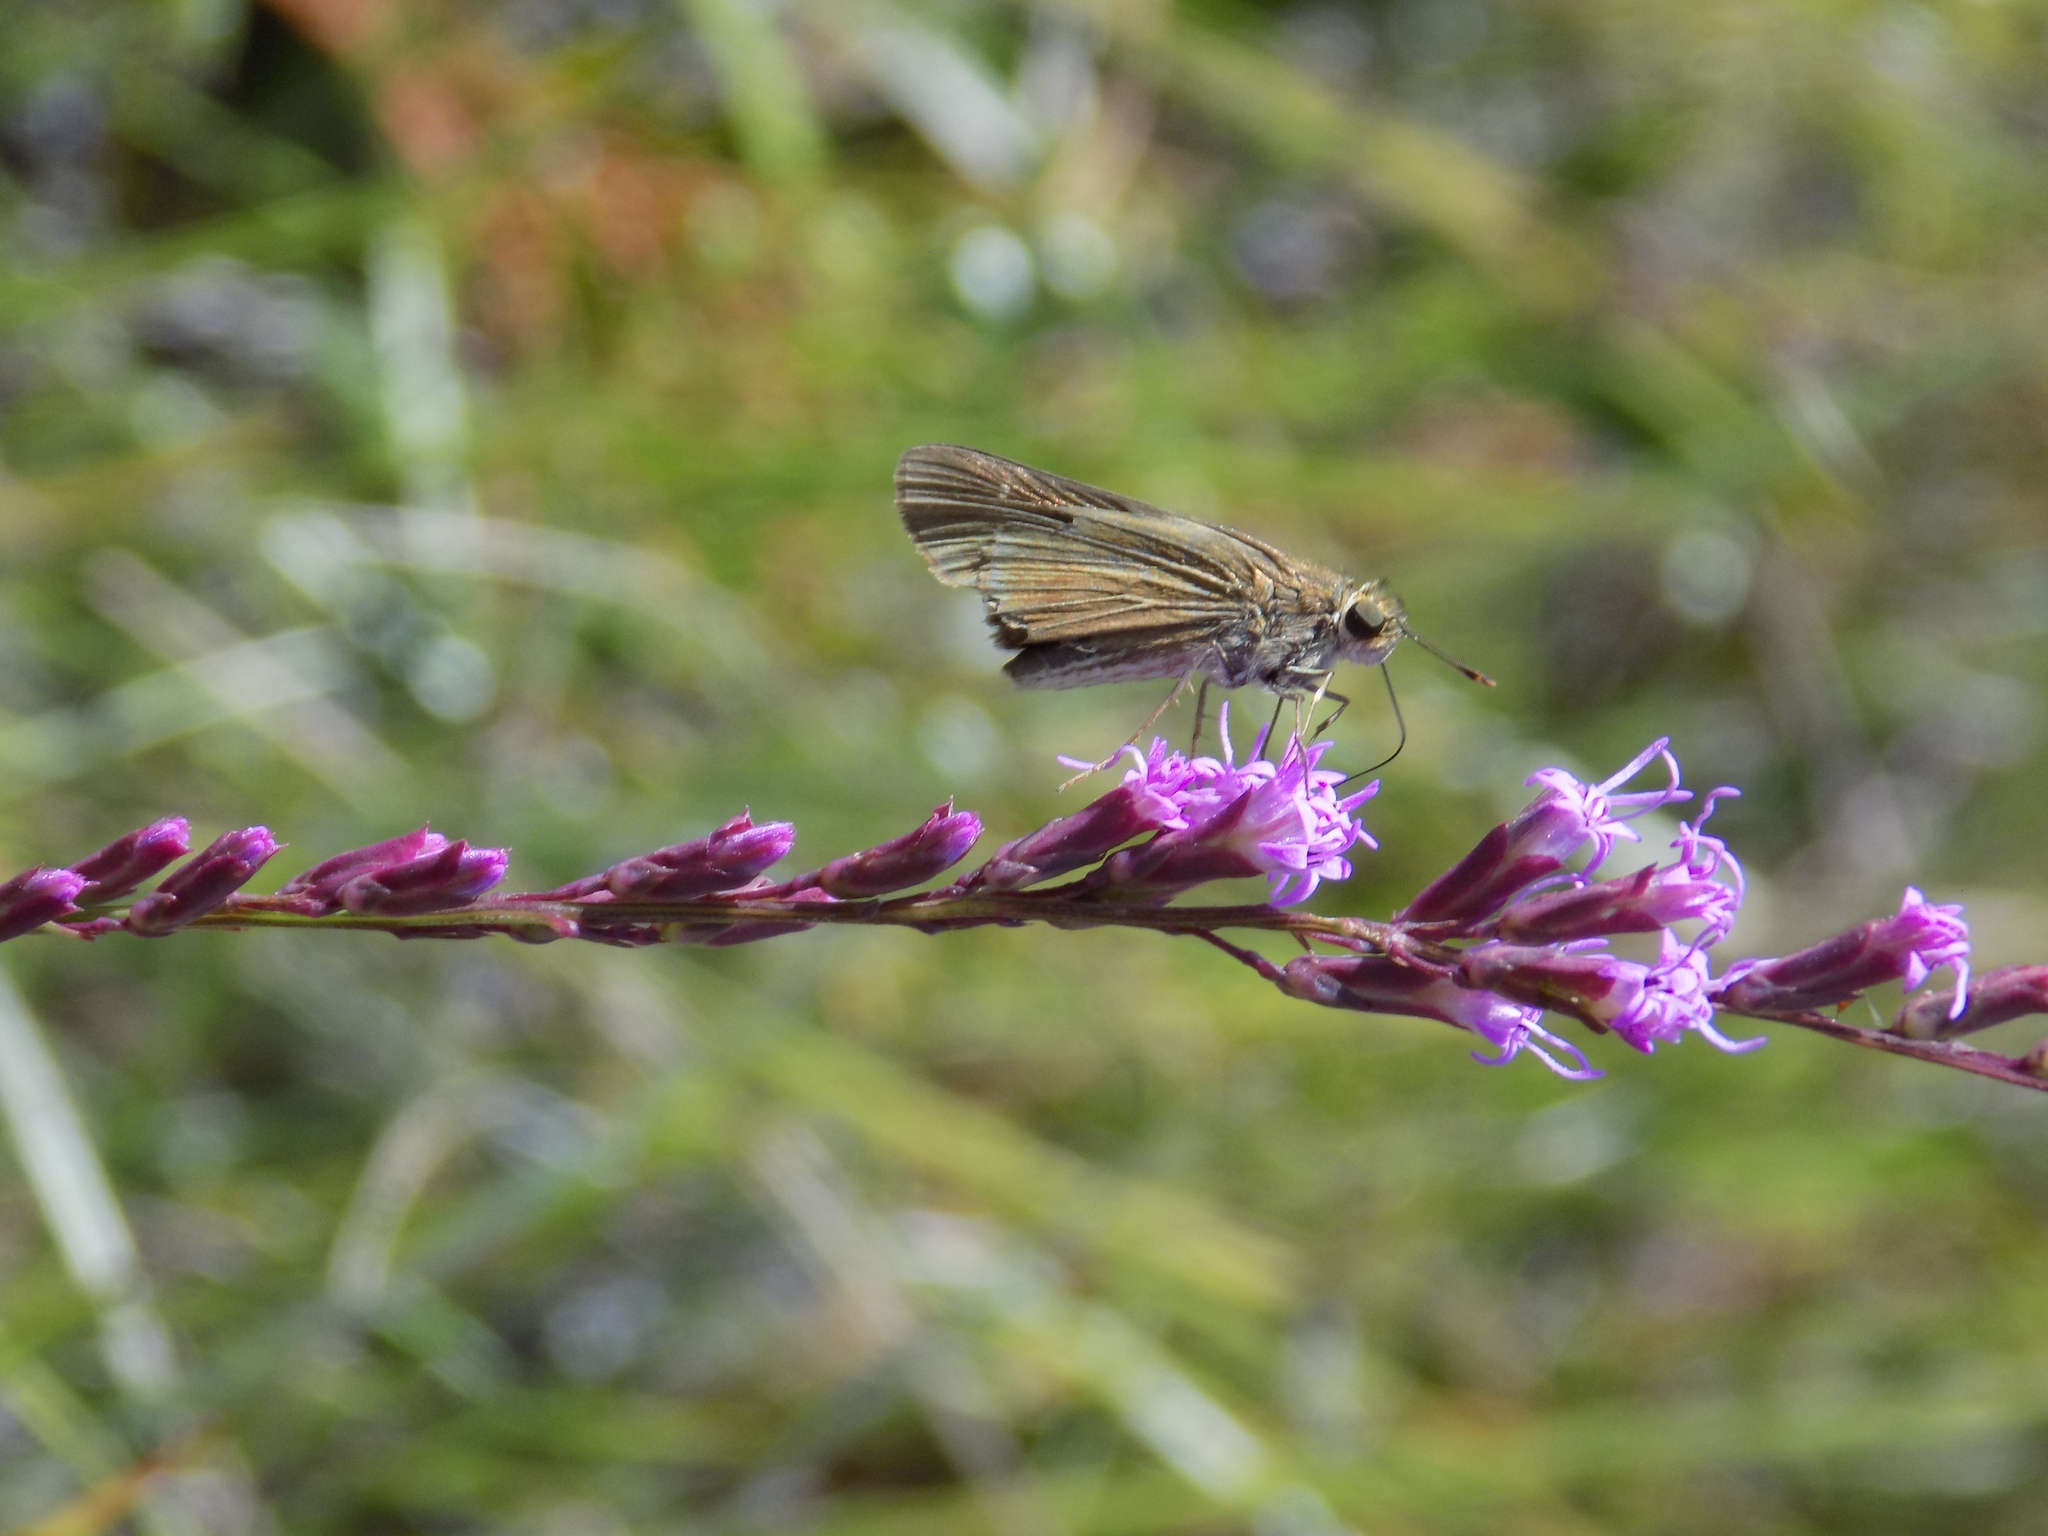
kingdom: Animalia
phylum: Arthropoda
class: Insecta
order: Lepidoptera
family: Hesperiidae
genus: Panoquina
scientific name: Panoquina ocola
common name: Ocola skipper
